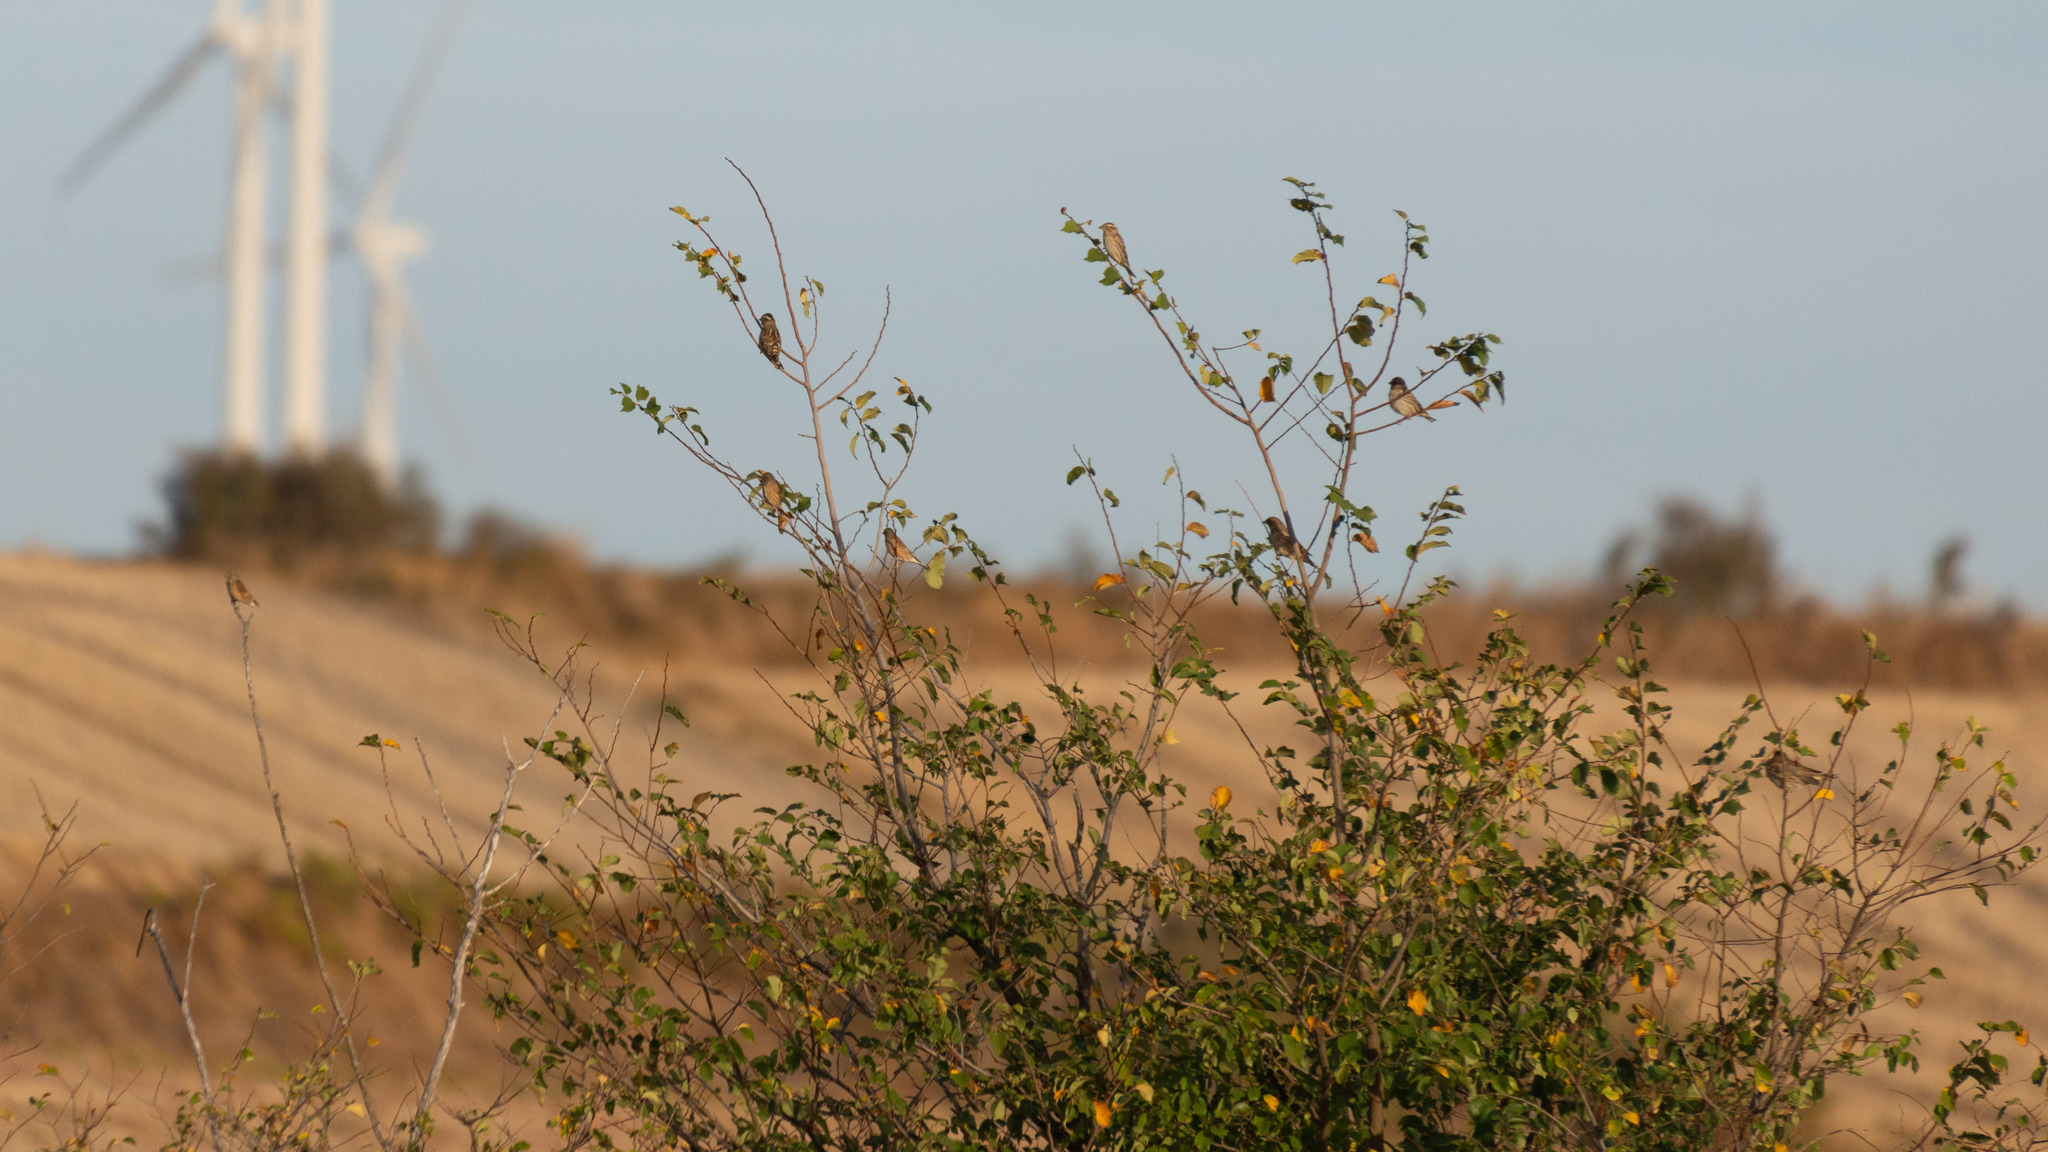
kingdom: Animalia
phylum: Chordata
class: Aves
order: Passeriformes
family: Fringillidae
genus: Linaria
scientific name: Linaria cannabina
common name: Common linnet
